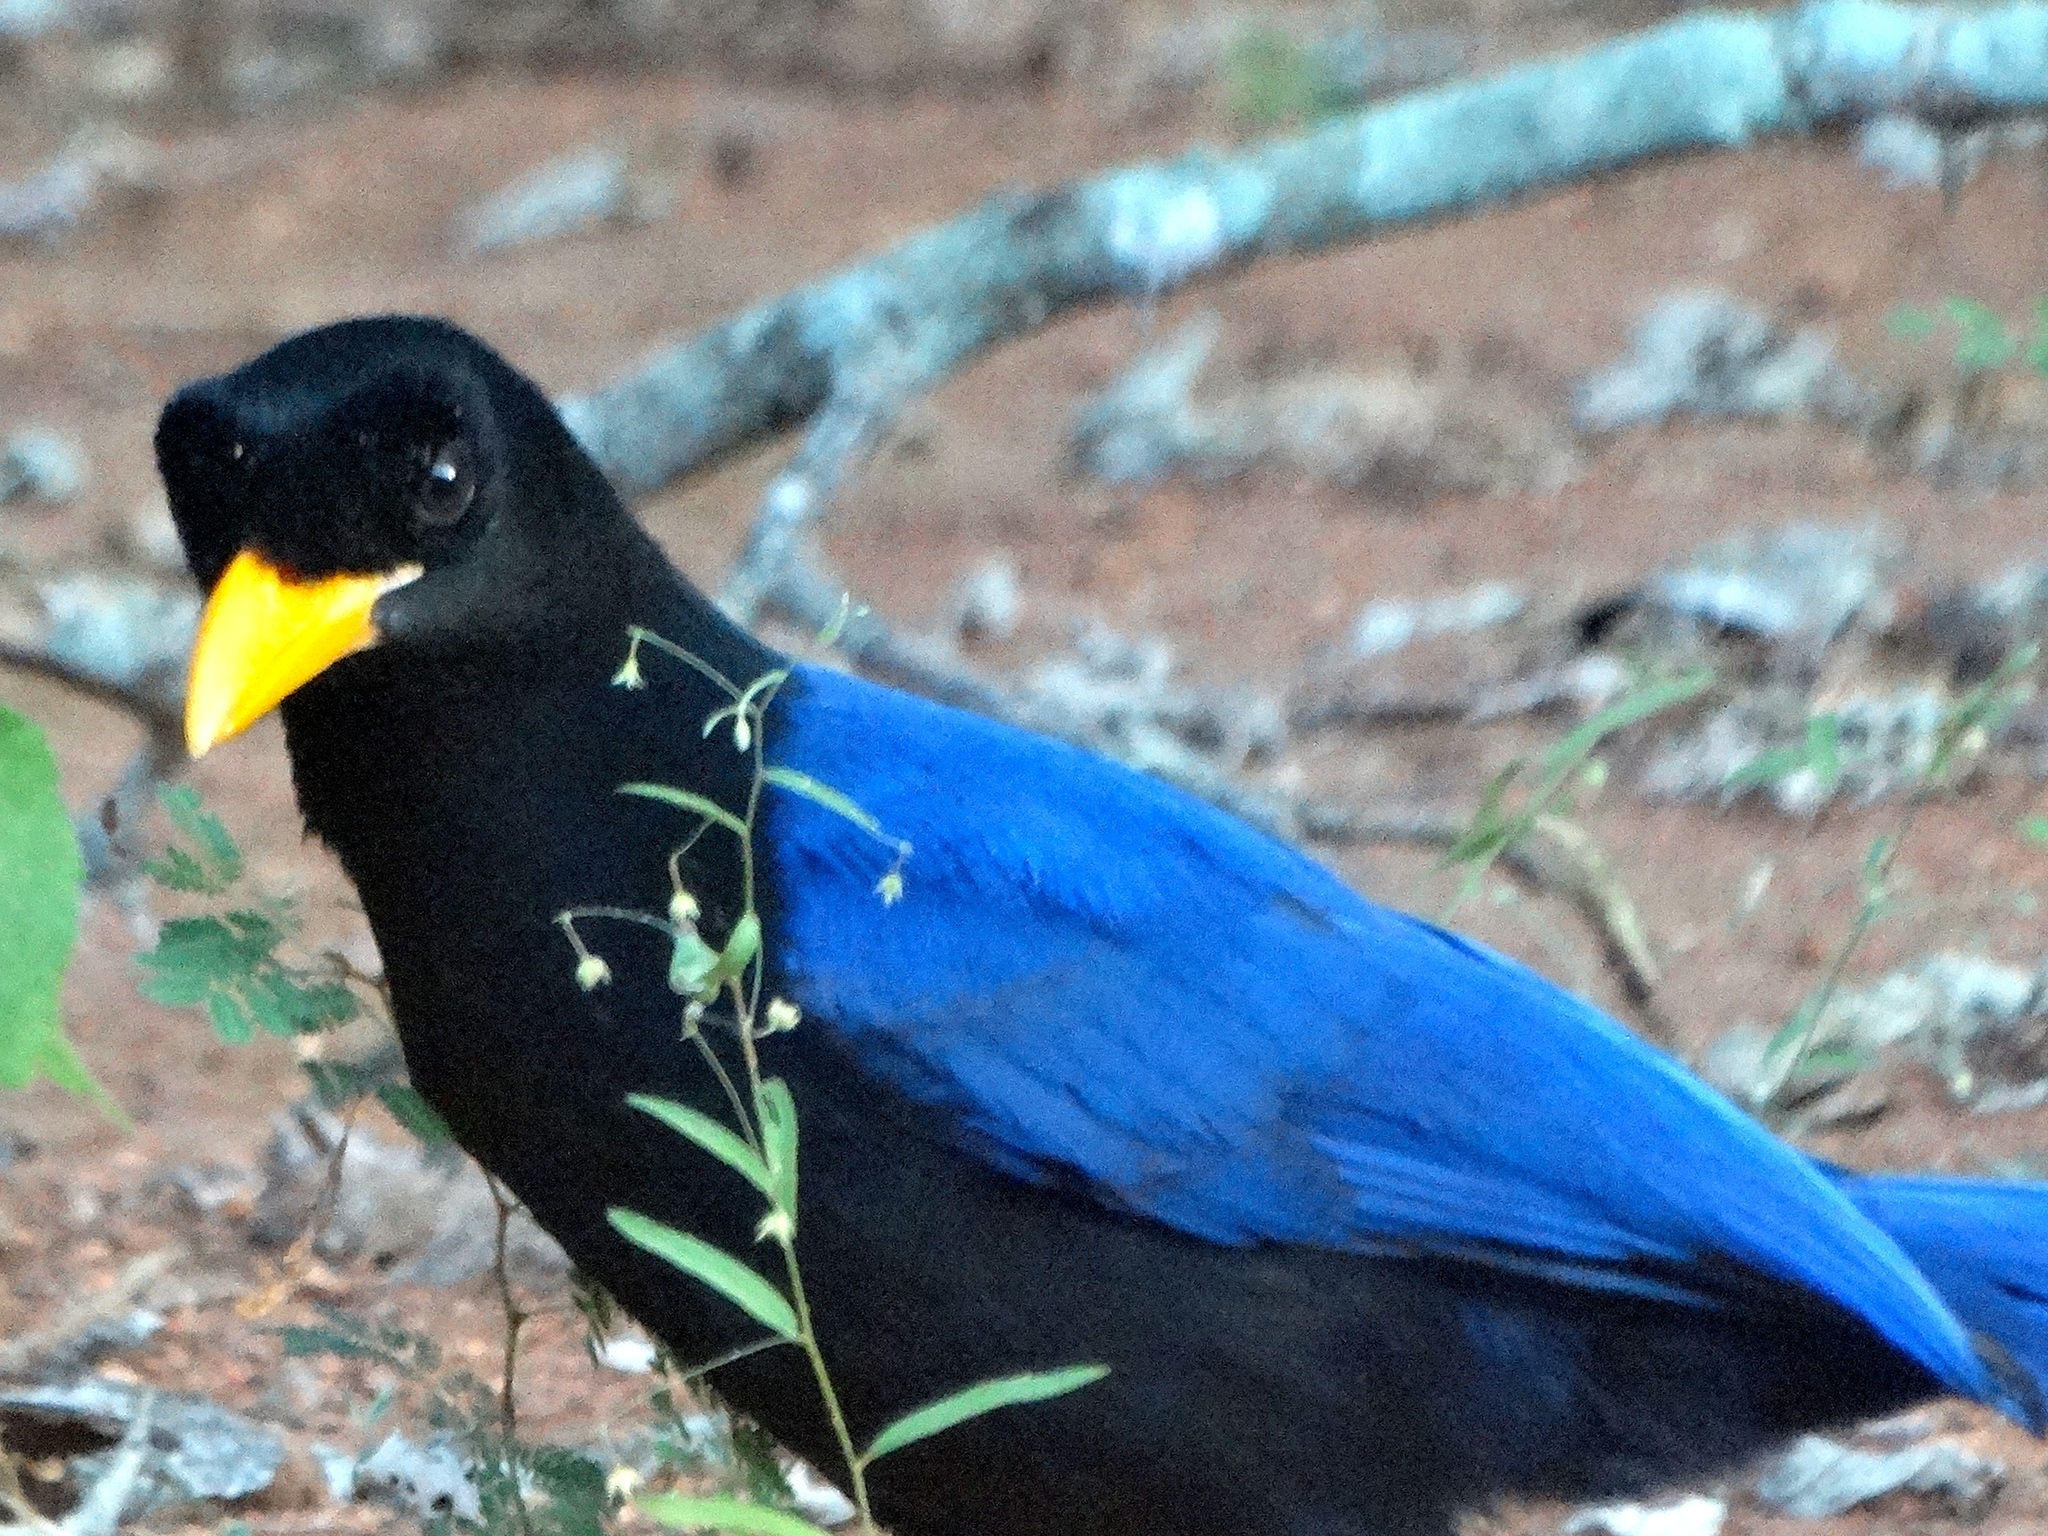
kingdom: Animalia
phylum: Chordata
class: Aves
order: Passeriformes
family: Corvidae
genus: Cyanocorax
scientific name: Cyanocorax beecheii
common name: Purplish-backed jay
